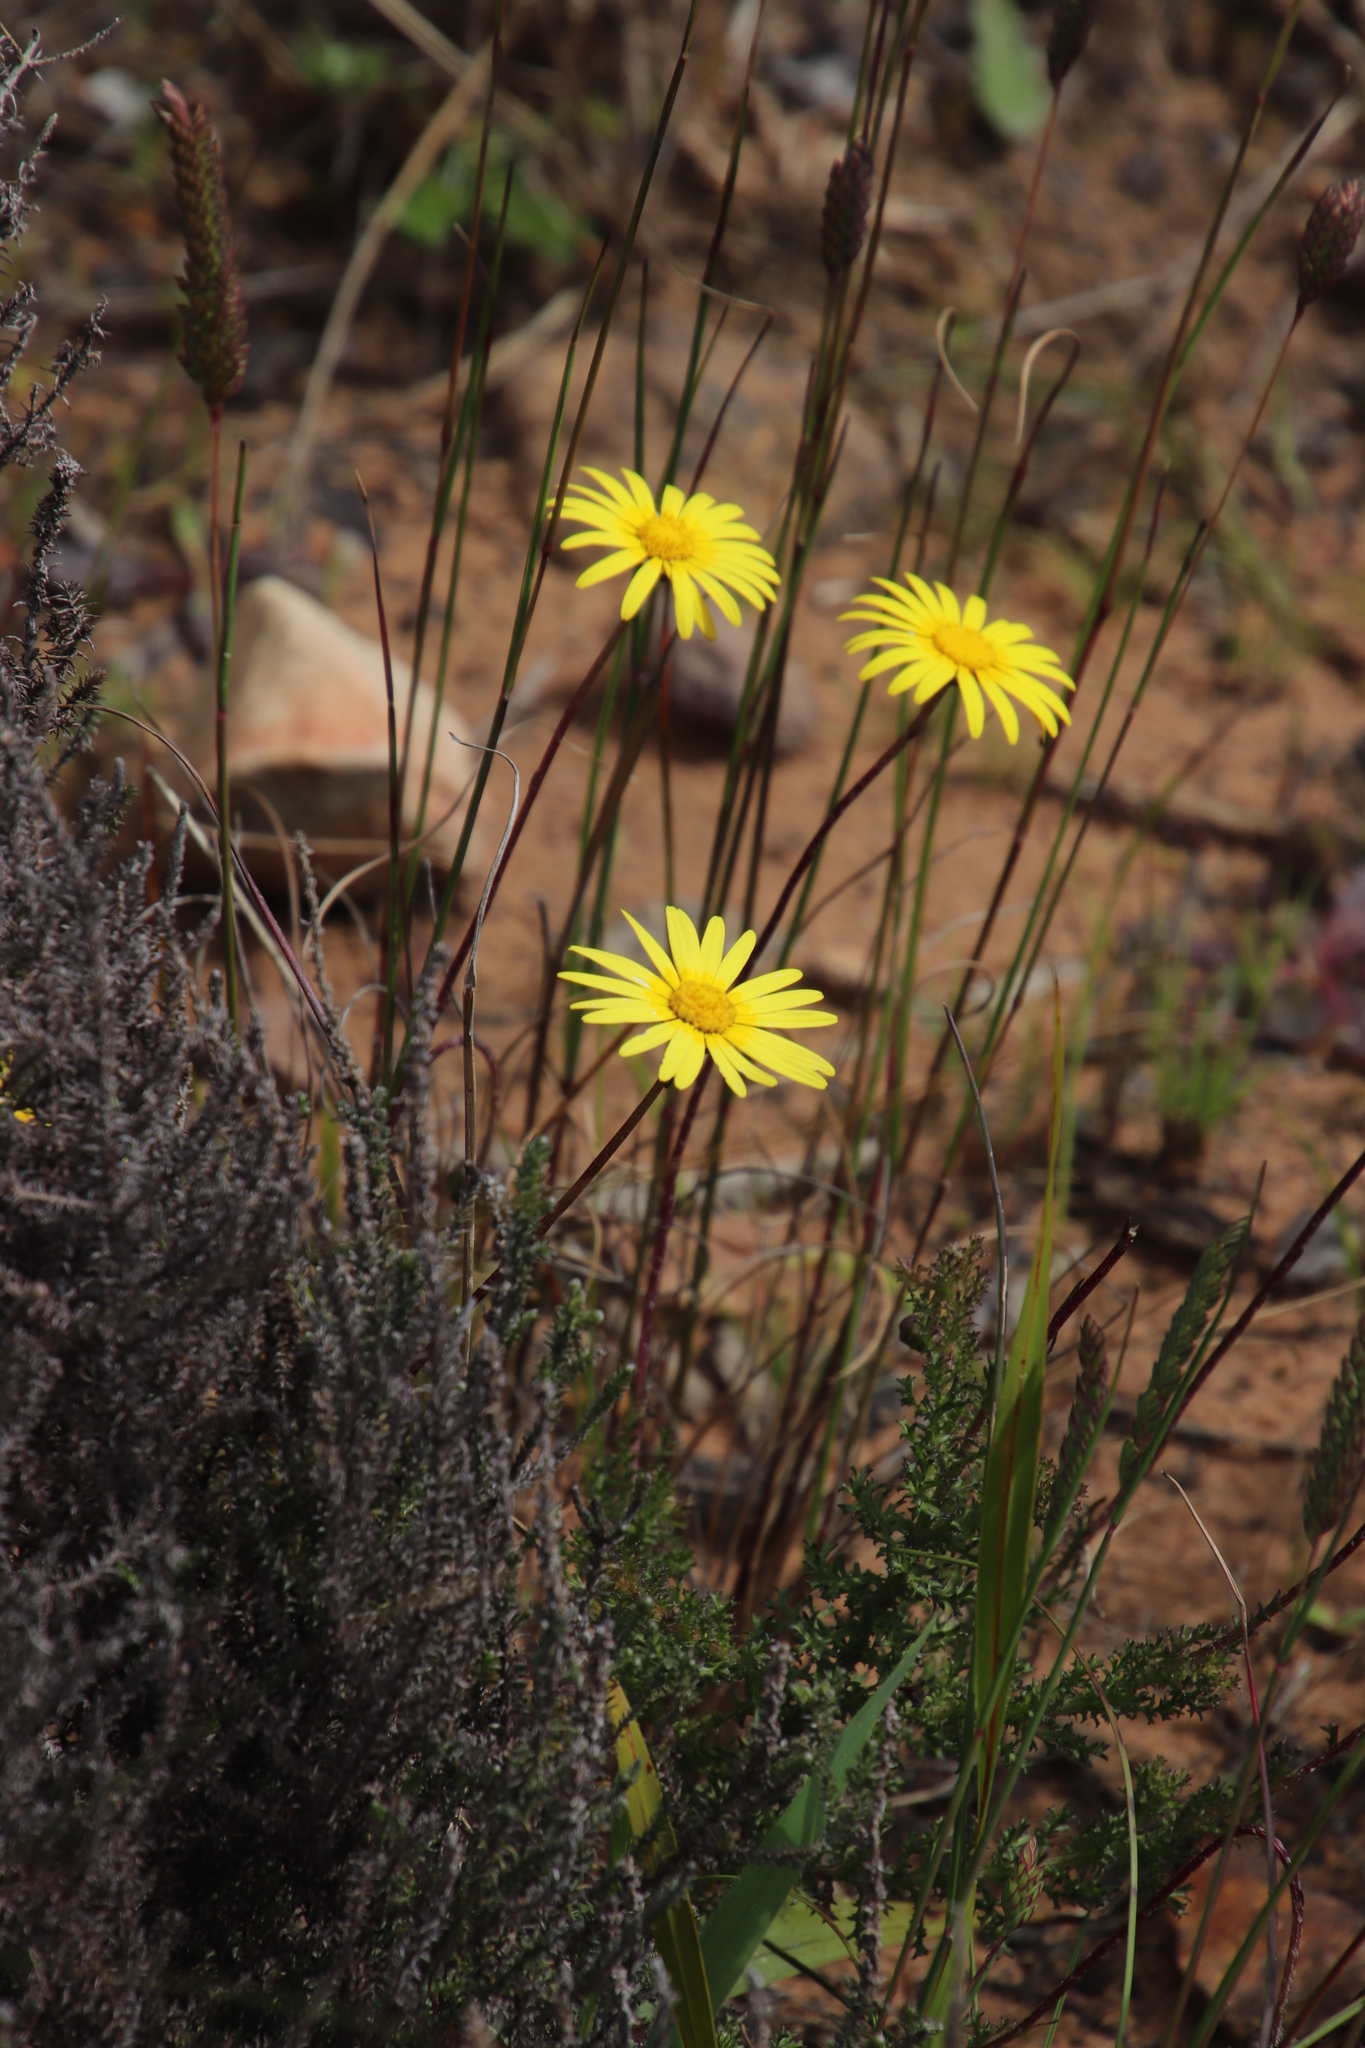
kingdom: Plantae
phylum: Tracheophyta
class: Magnoliopsida
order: Asterales
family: Asteraceae
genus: Ursinia
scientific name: Ursinia dentata
